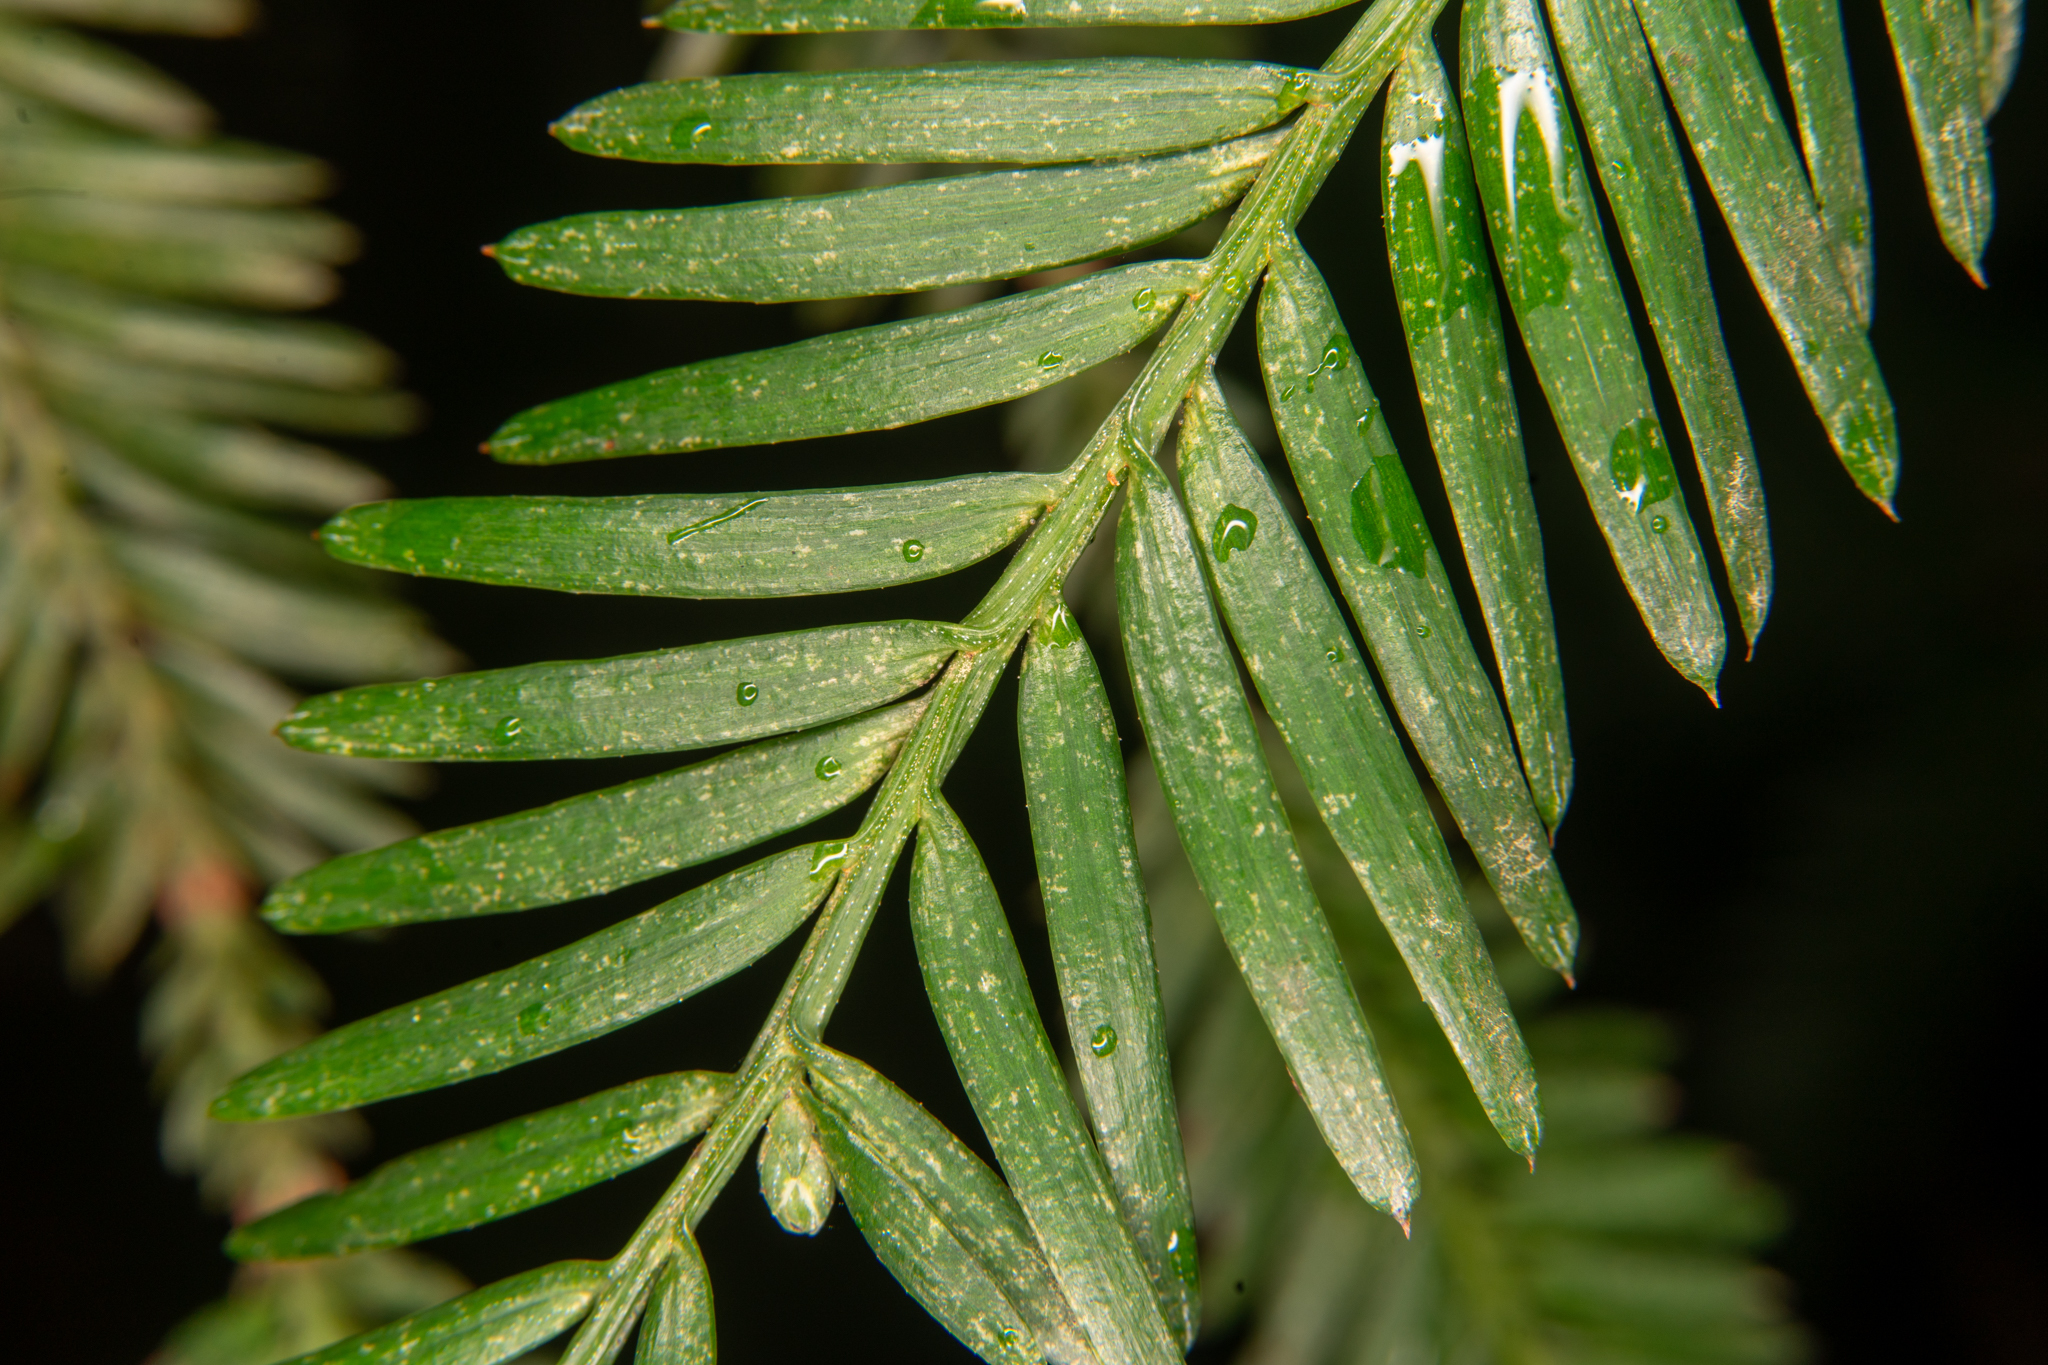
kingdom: Plantae
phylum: Tracheophyta
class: Pinopsida
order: Pinales
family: Cupressaceae
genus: Sequoia
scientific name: Sequoia sempervirens
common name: Coast redwood
